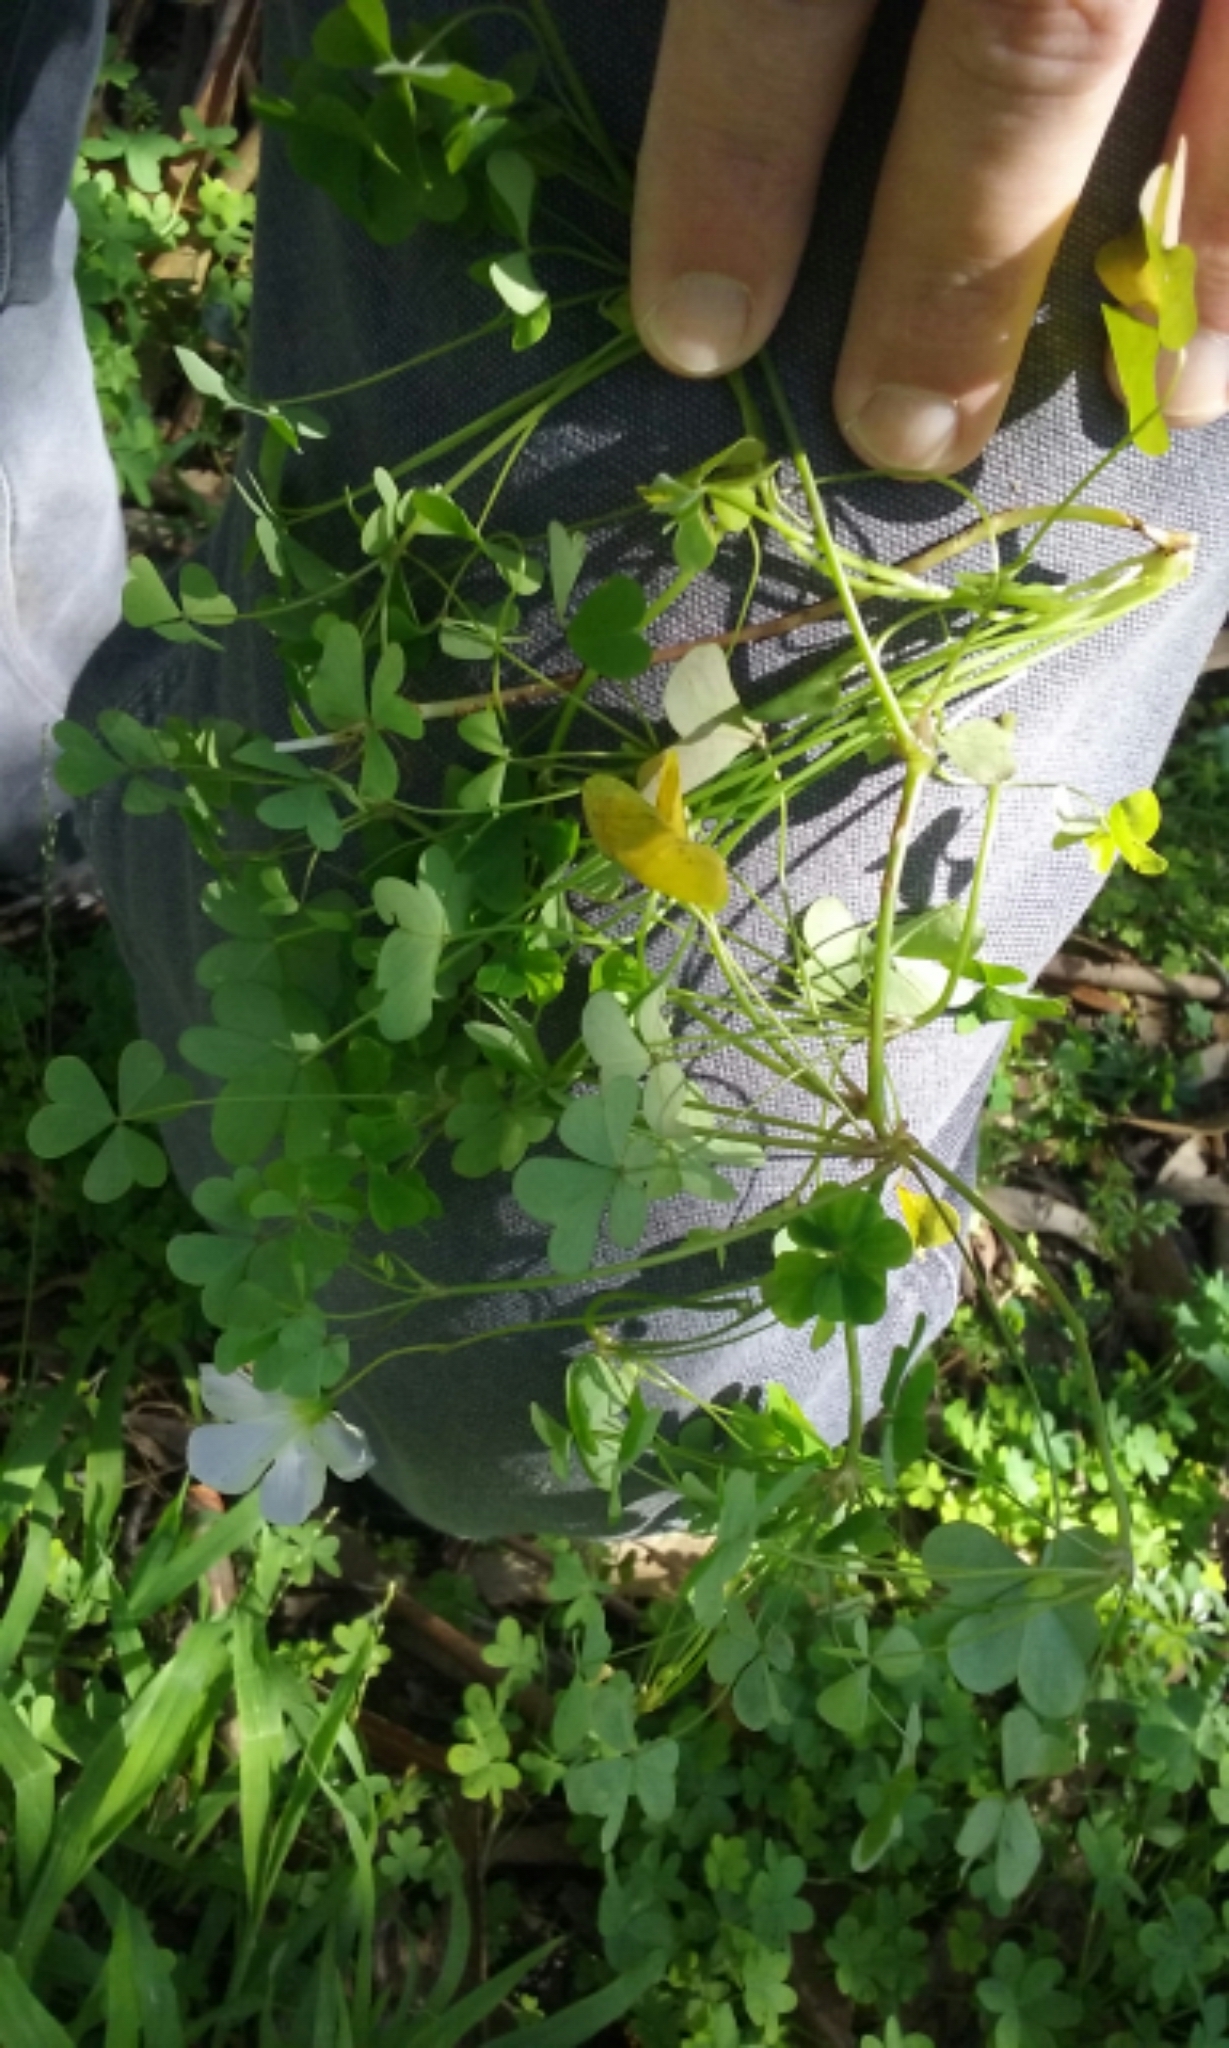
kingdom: Plantae
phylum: Tracheophyta
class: Magnoliopsida
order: Oxalidales
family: Oxalidaceae
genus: Oxalis
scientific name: Oxalis incarnata
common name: Pale pink-sorrel
